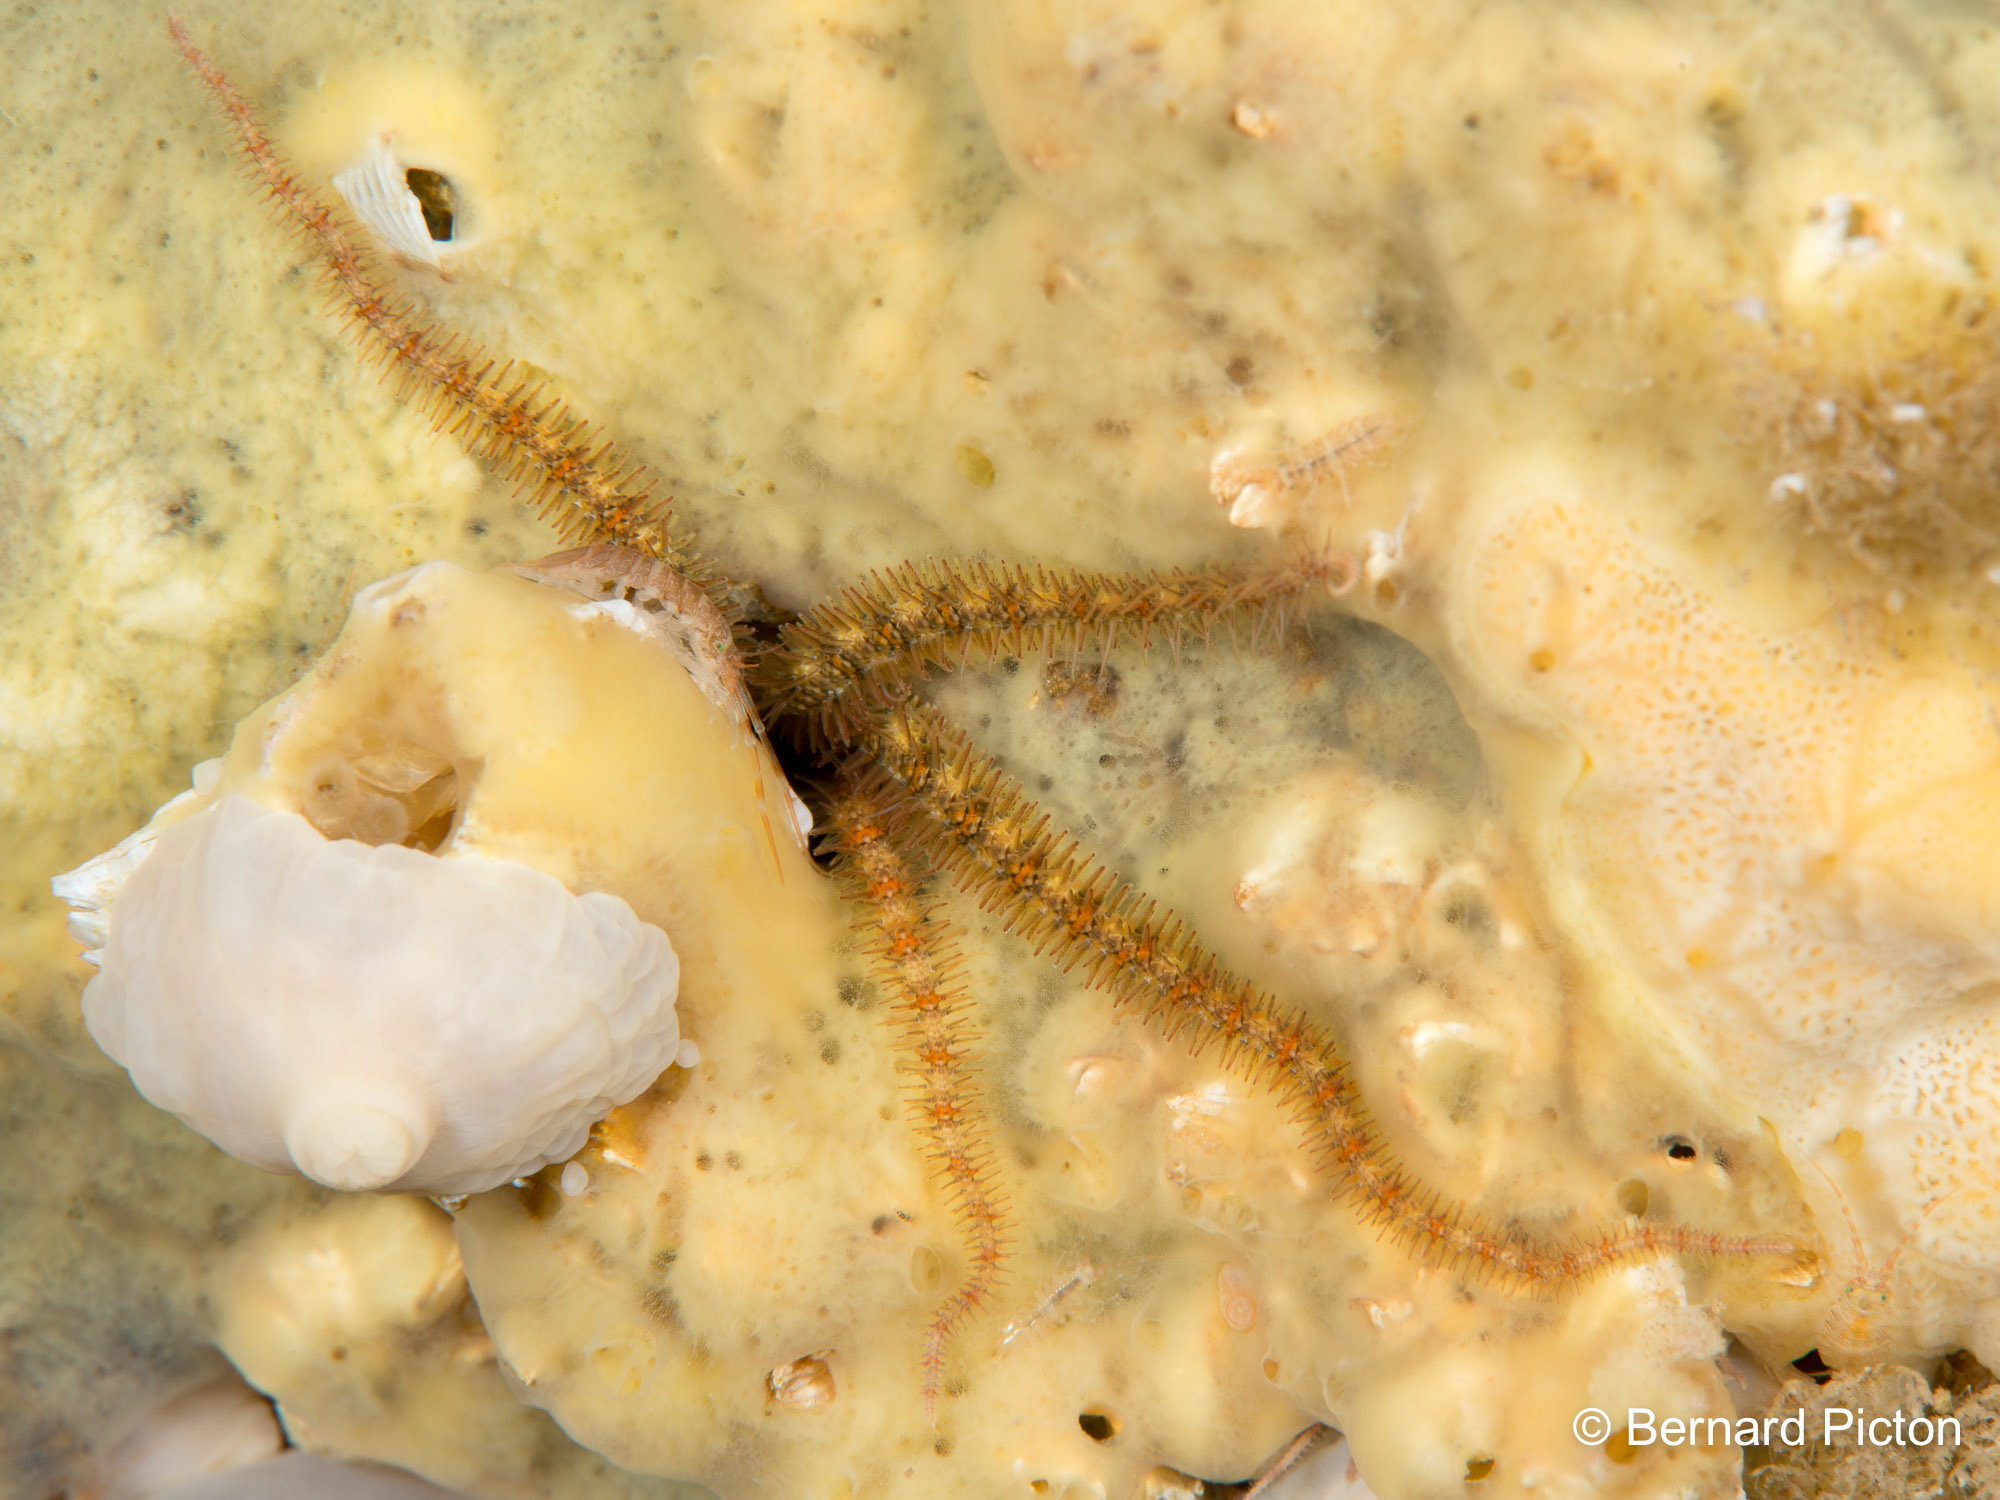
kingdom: Animalia
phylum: Echinodermata
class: Ophiuroidea
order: Amphilepidida
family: Ophiotrichidae
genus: Ophiothrix
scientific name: Ophiothrix fragilis
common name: Common brittlestar
